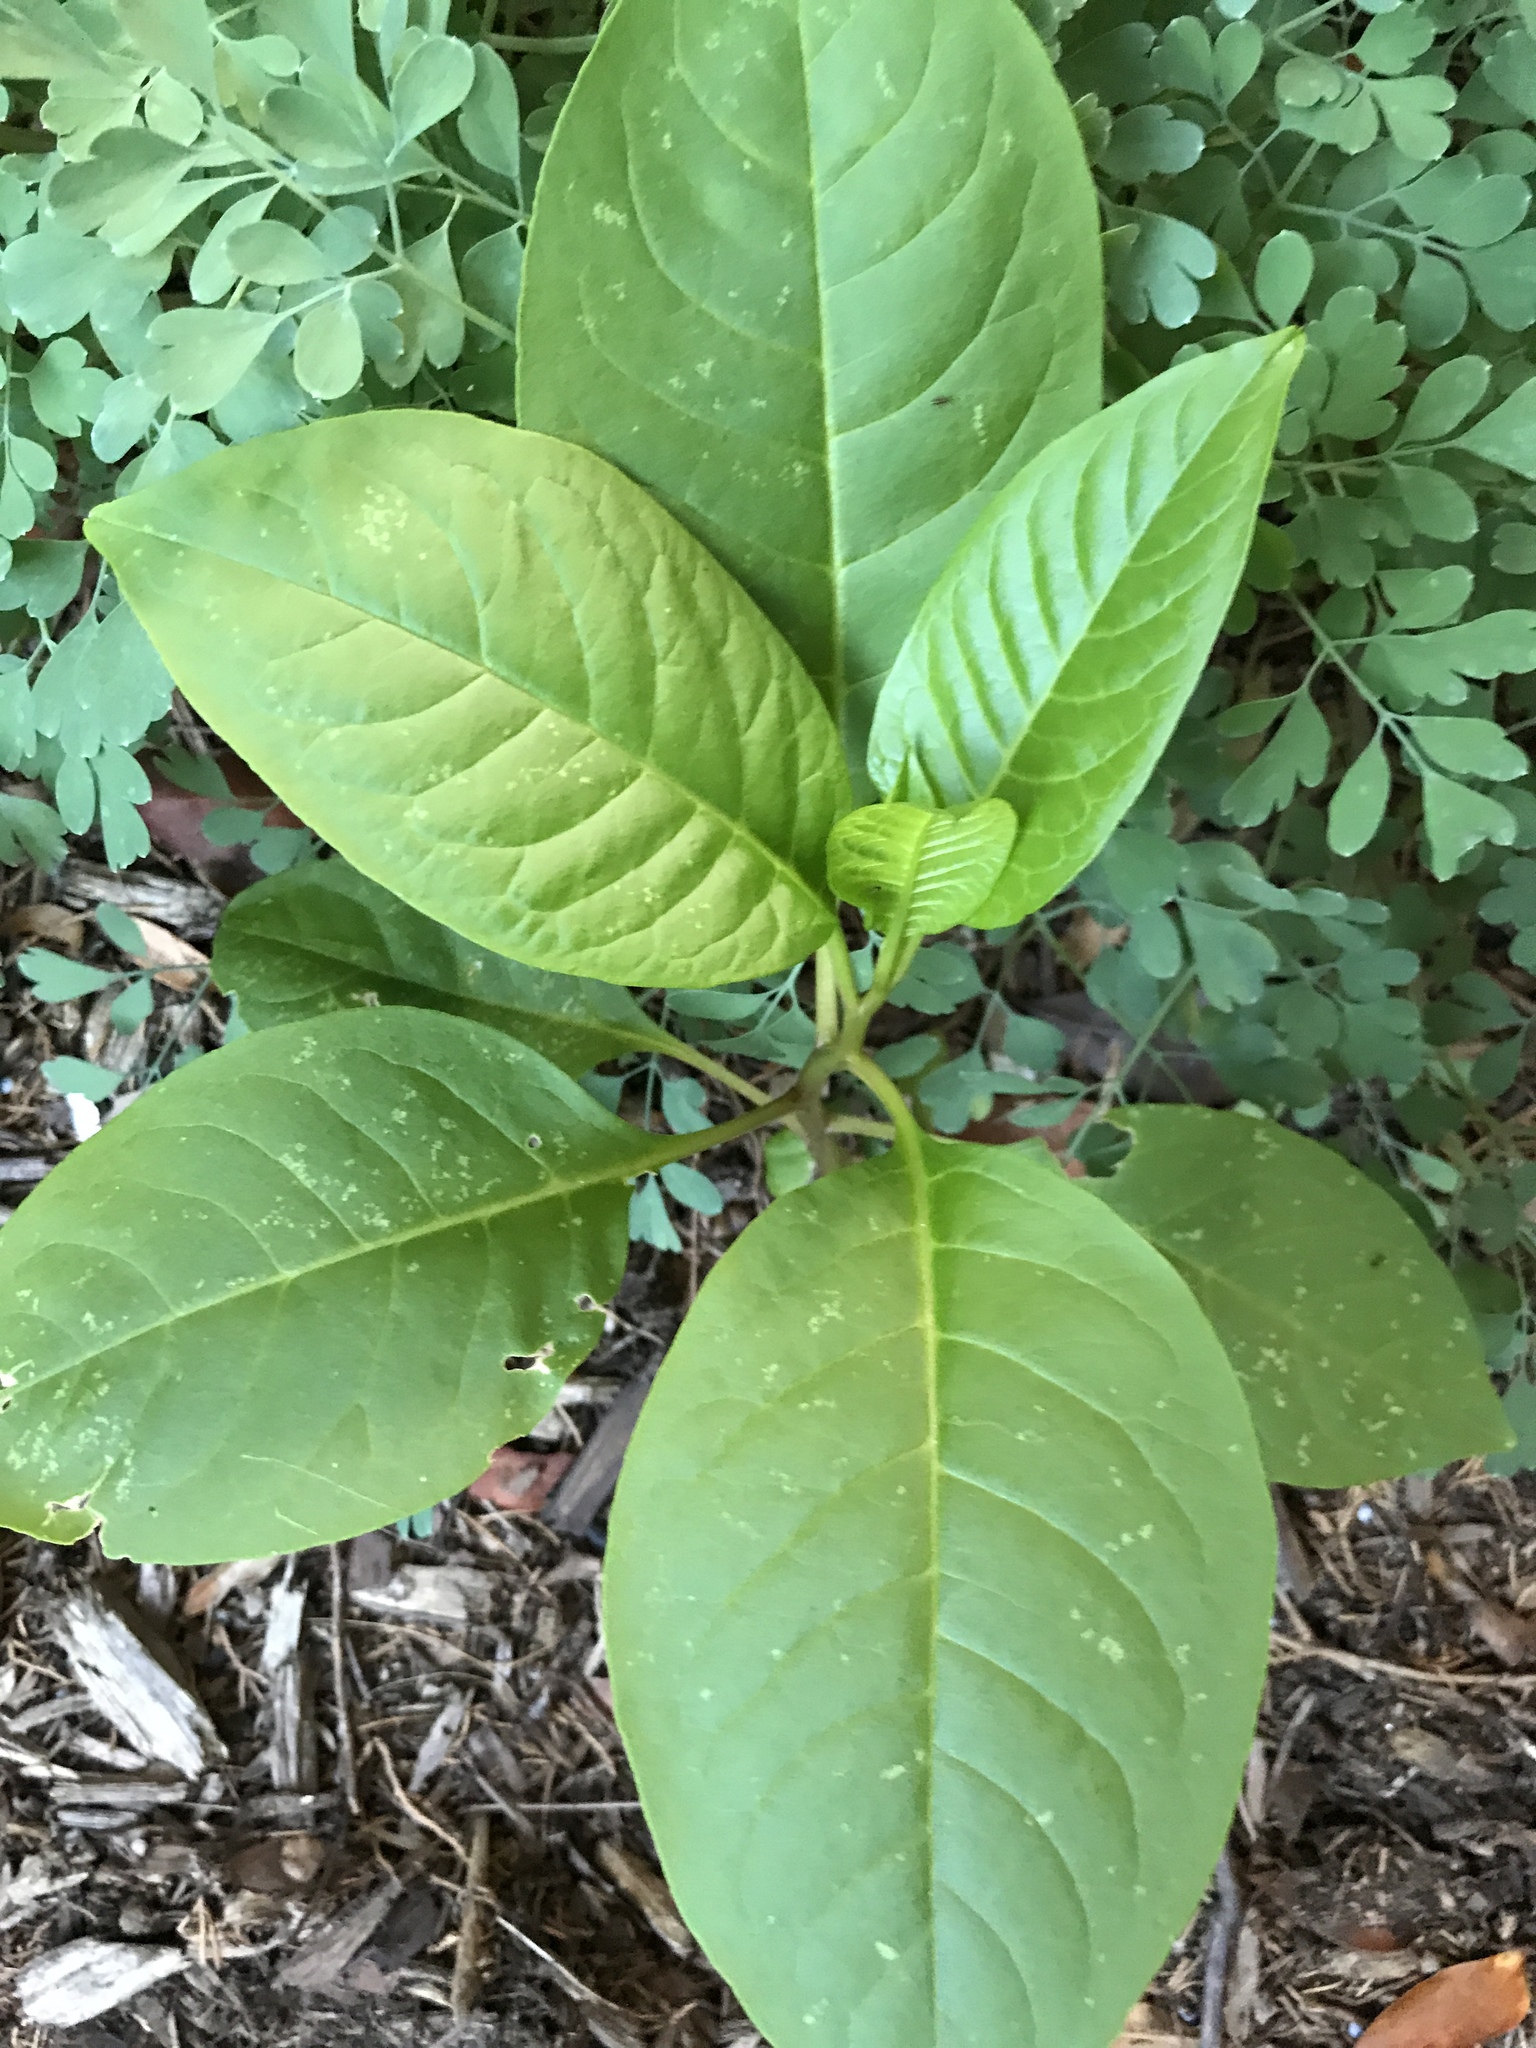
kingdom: Plantae
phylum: Tracheophyta
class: Magnoliopsida
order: Caryophyllales
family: Phytolaccaceae
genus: Phytolacca
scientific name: Phytolacca americana
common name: American pokeweed
